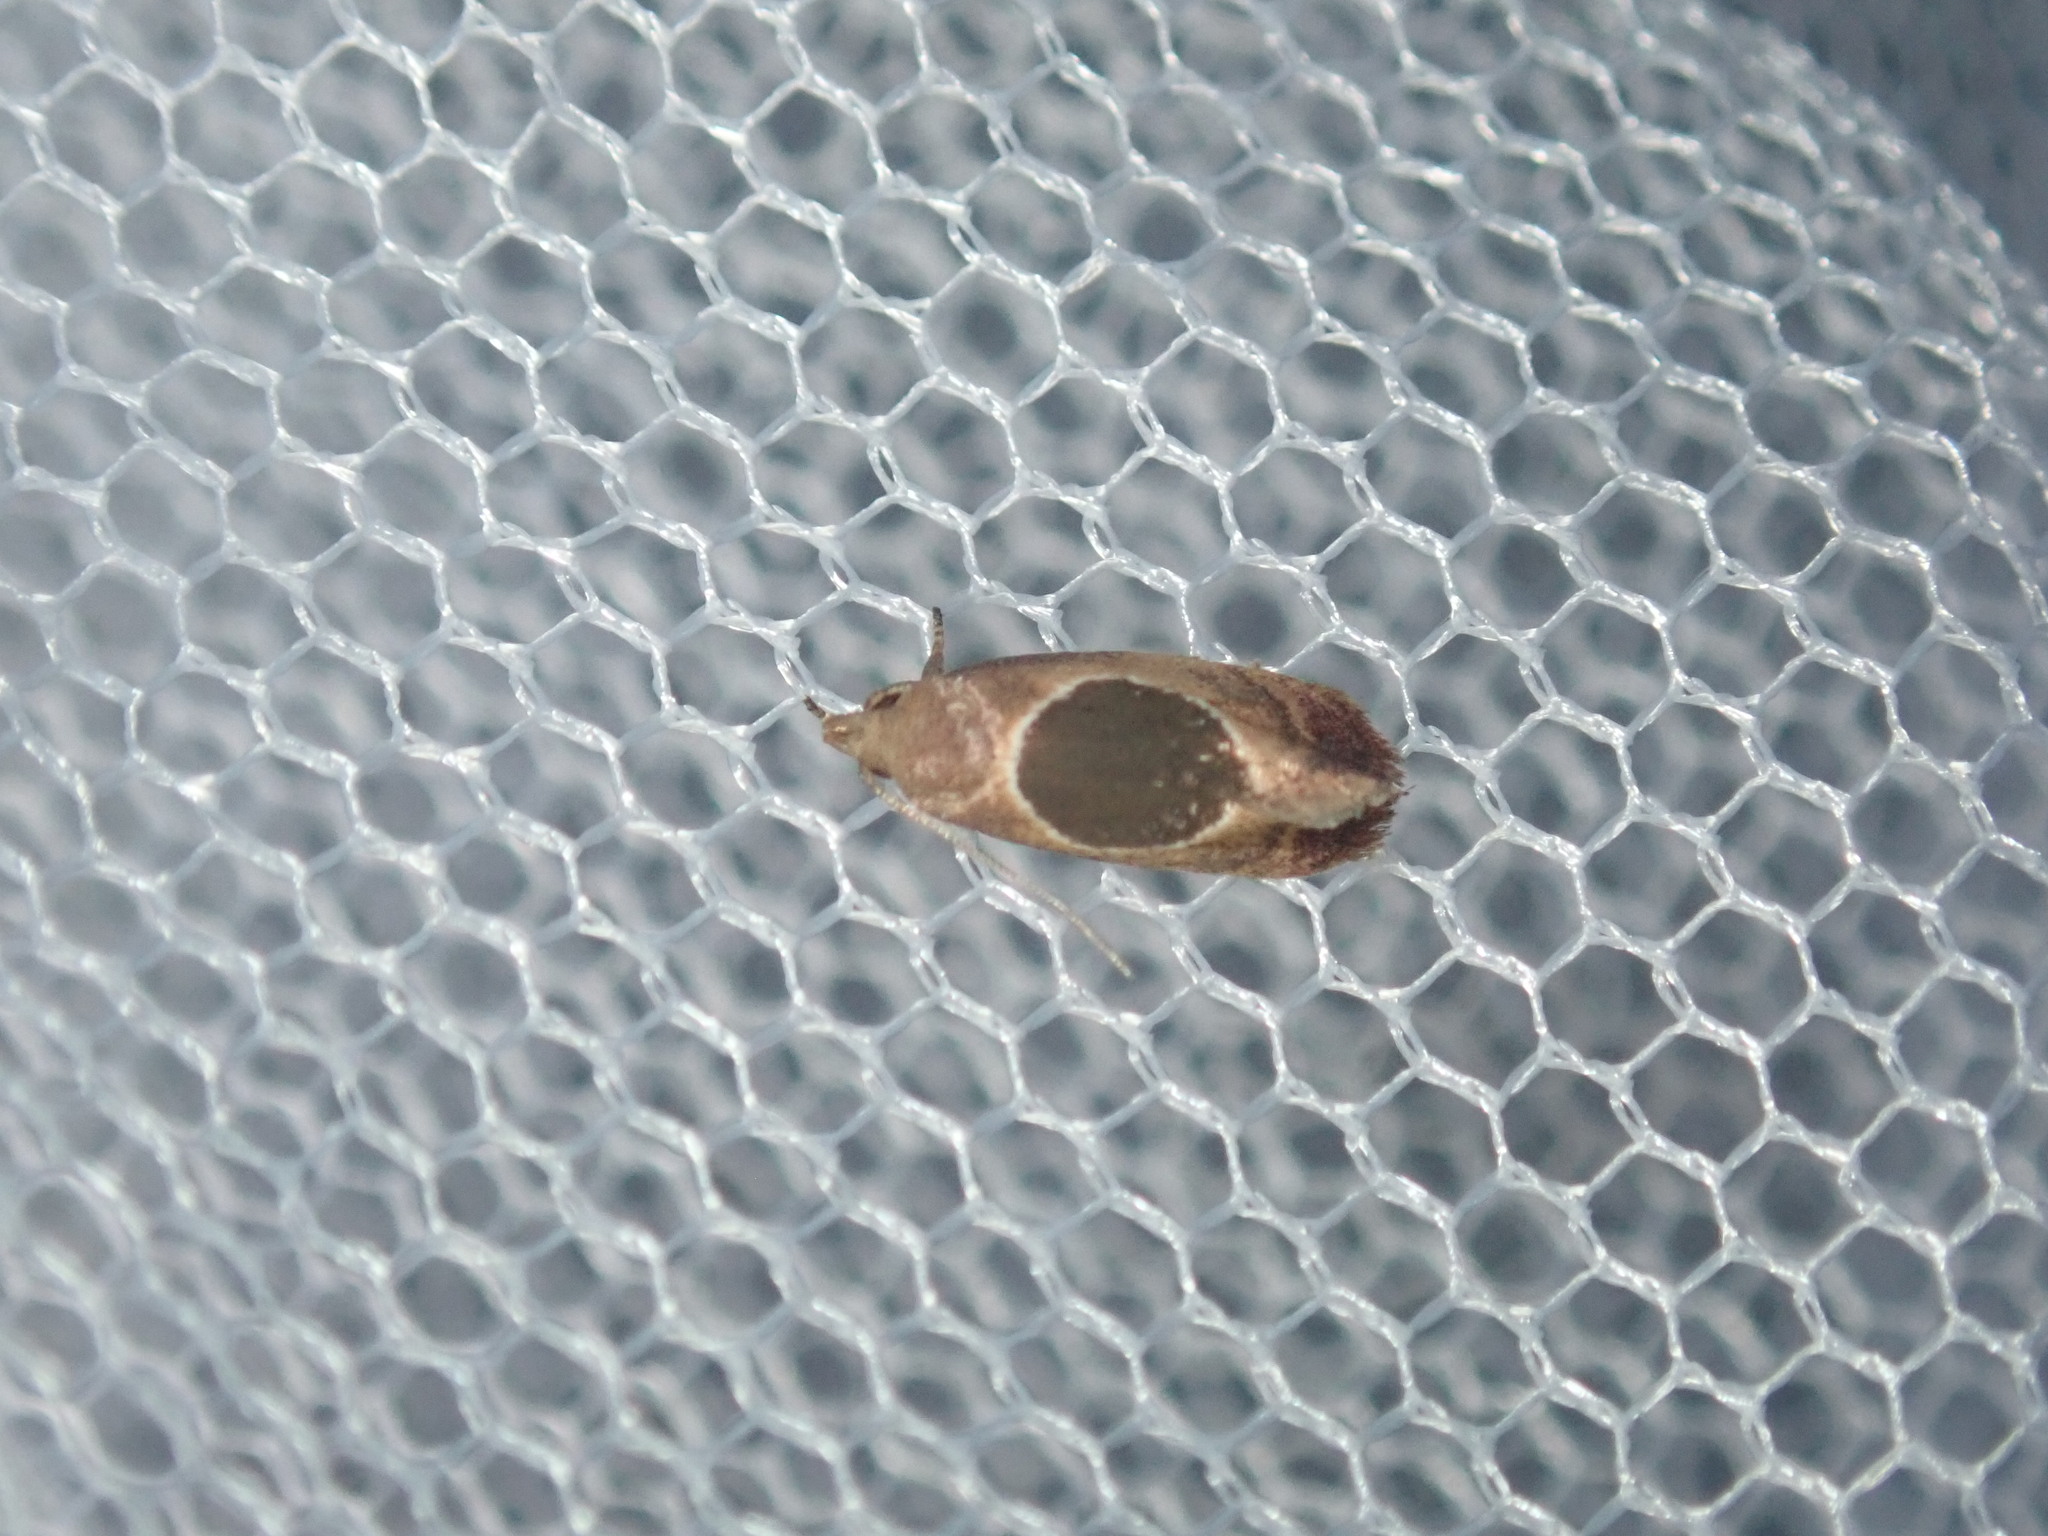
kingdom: Animalia
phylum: Arthropoda
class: Insecta
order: Lepidoptera
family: Oecophoridae
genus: Hoplomorpha
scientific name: Hoplomorpha abalienella
